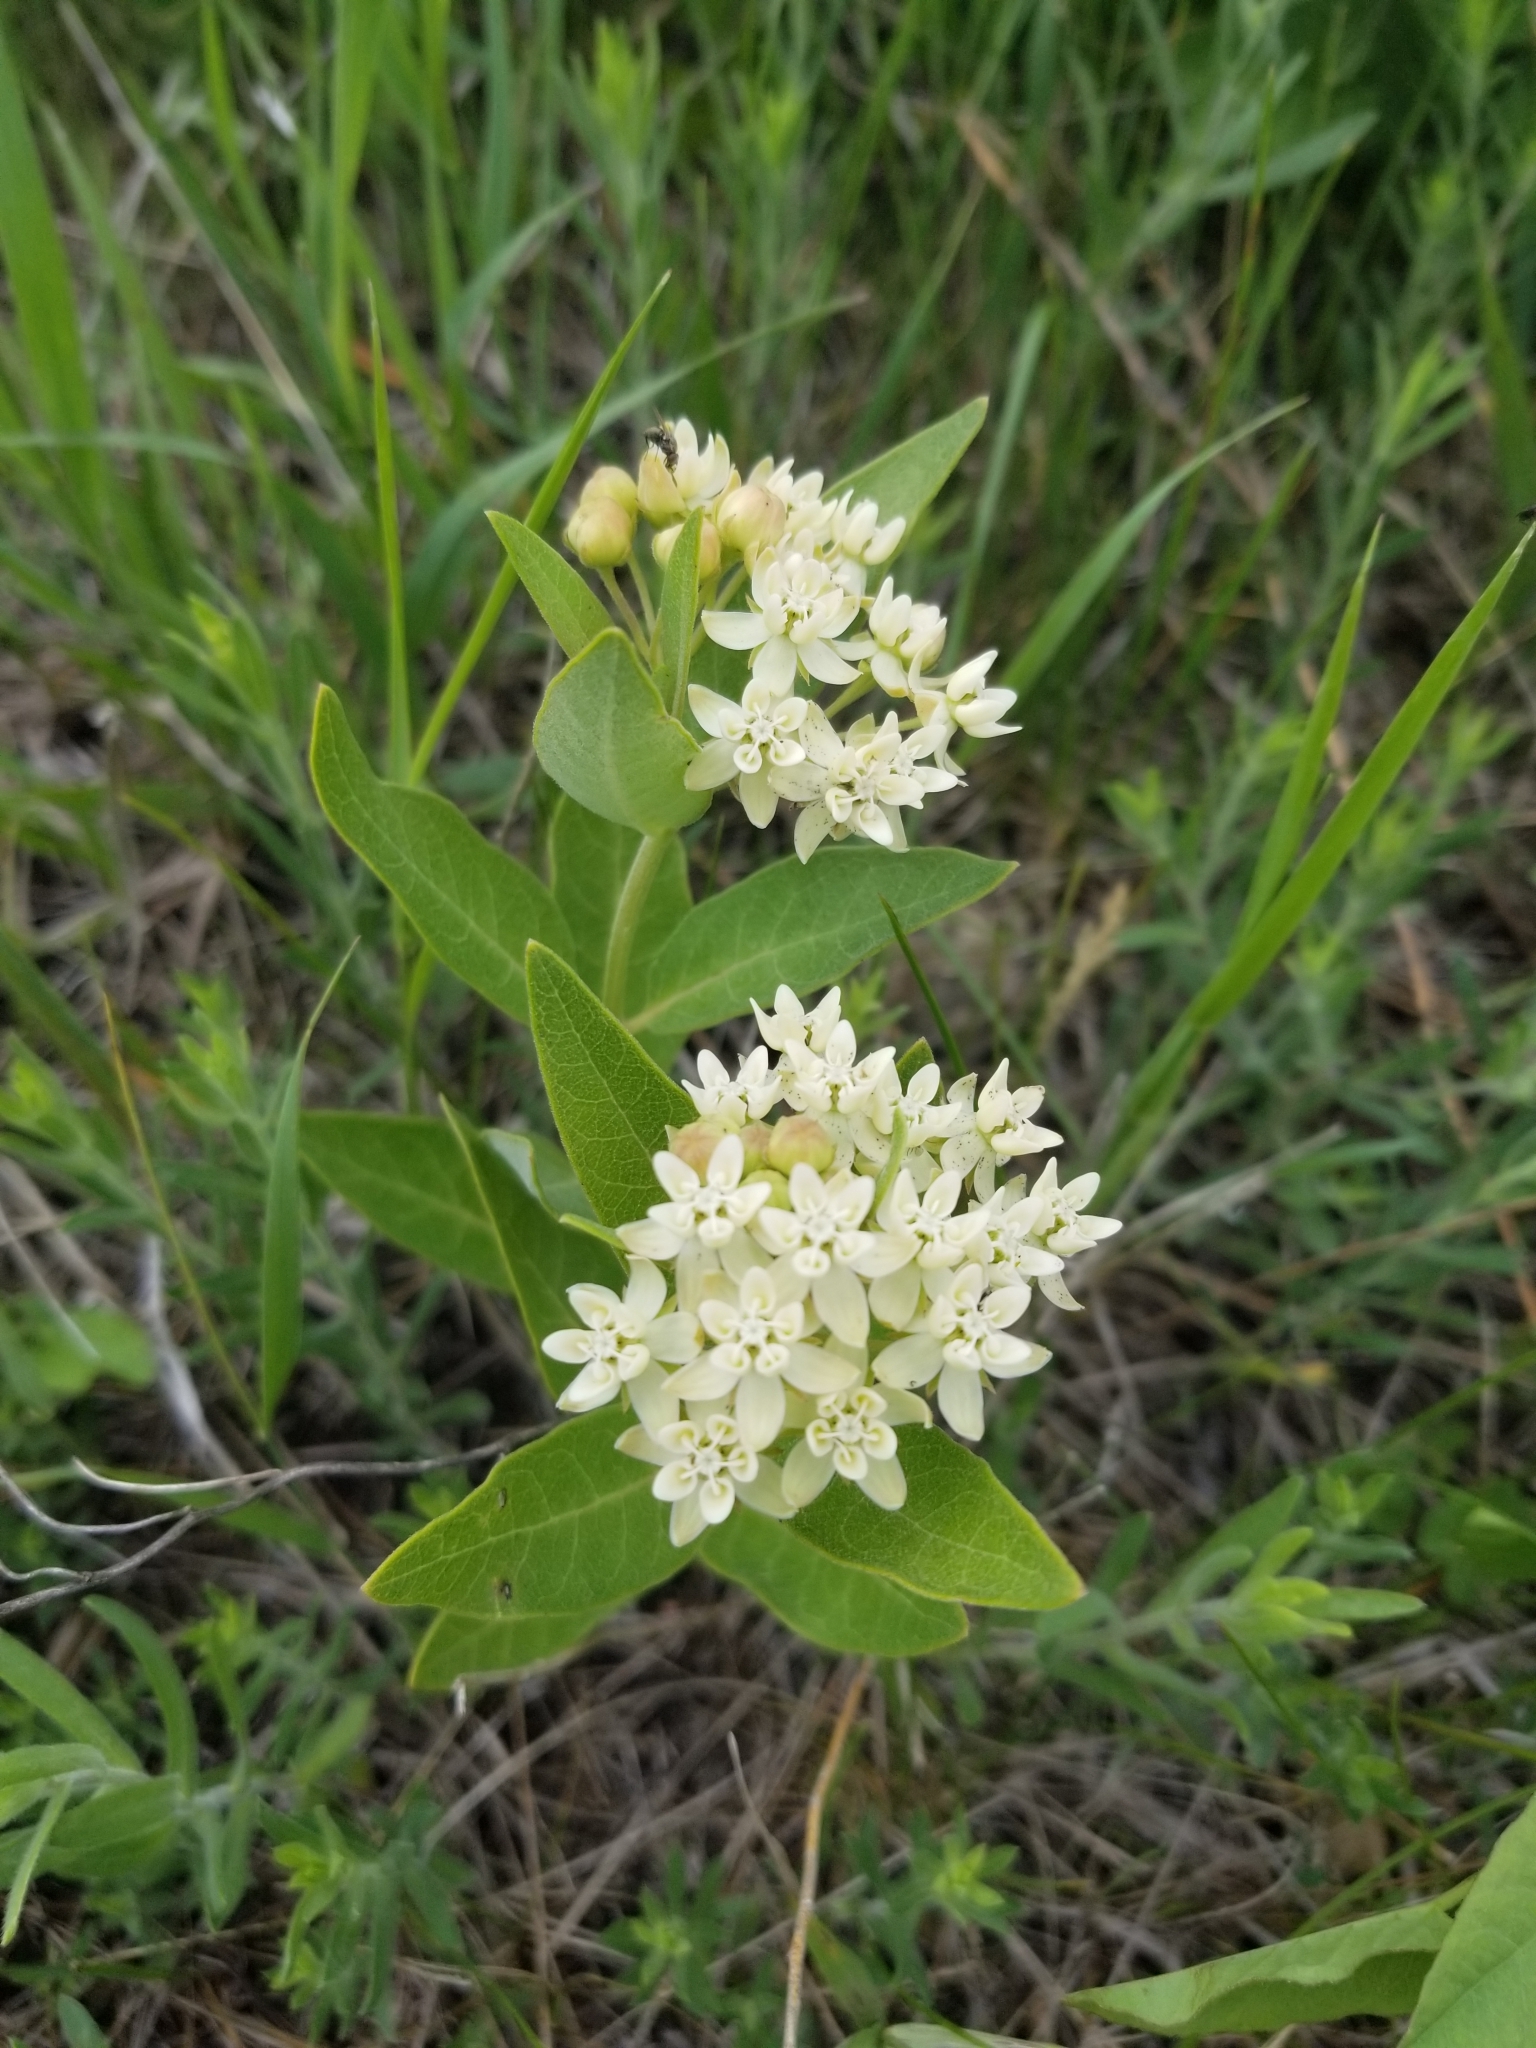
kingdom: Plantae
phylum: Tracheophyta
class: Magnoliopsida
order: Gentianales
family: Apocynaceae
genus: Asclepias
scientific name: Asclepias ovalifolia
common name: Dwarf milkweed
